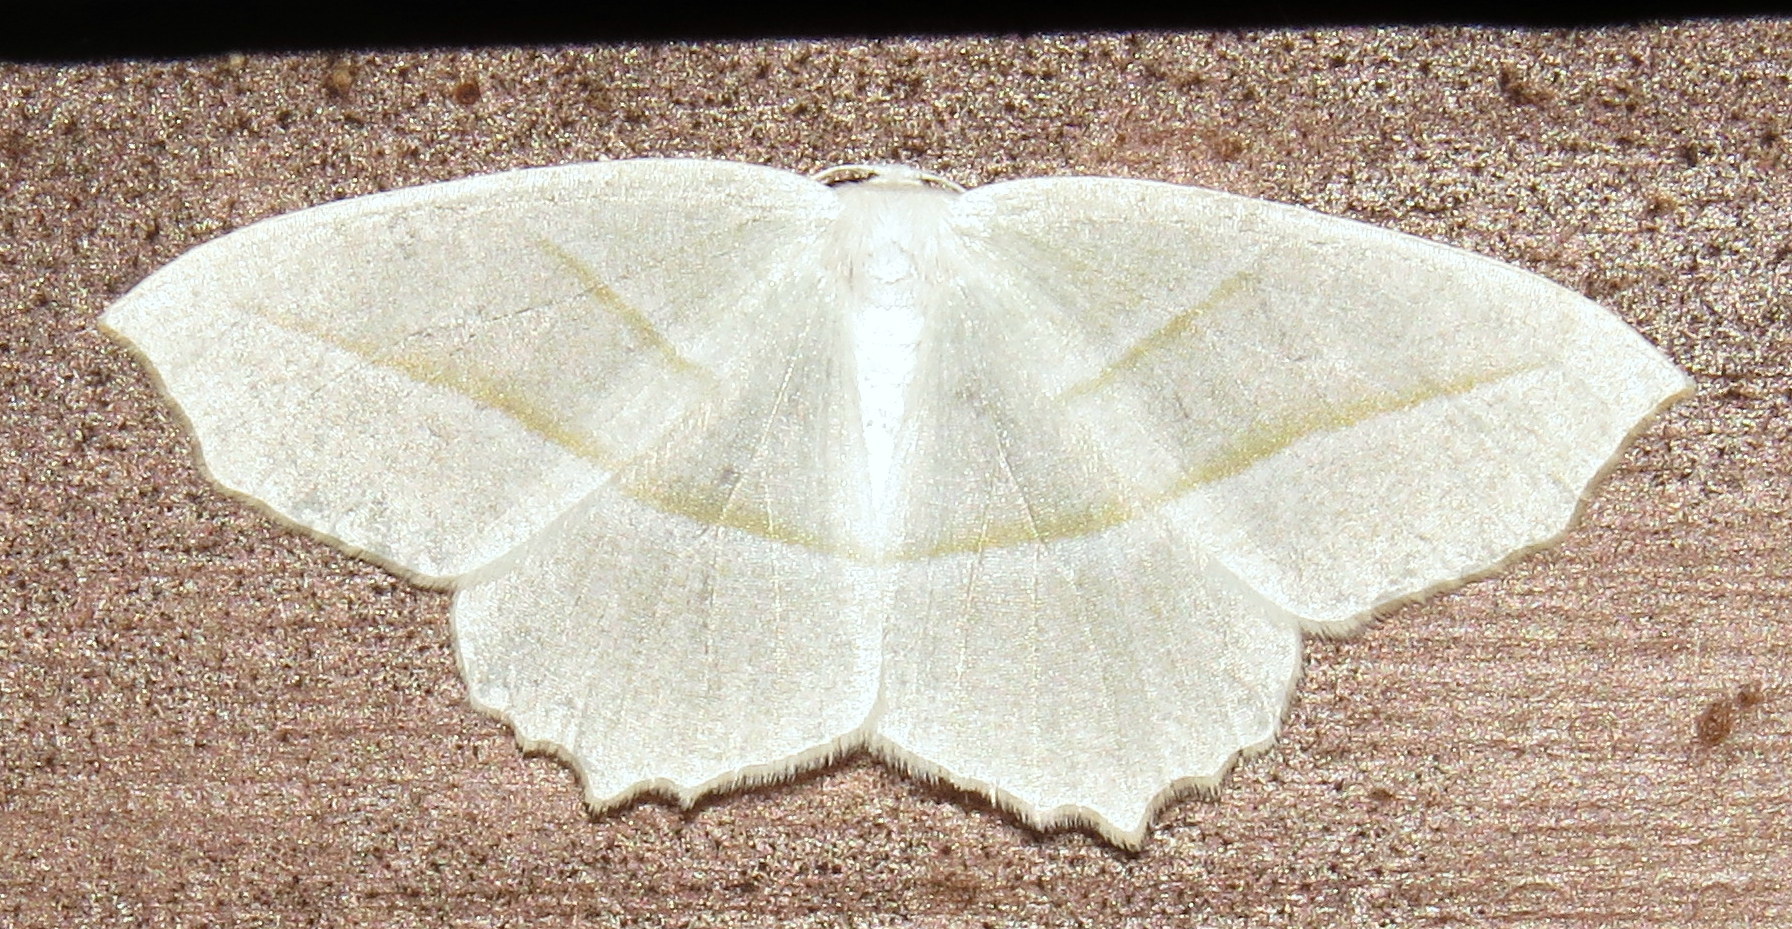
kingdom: Animalia
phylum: Arthropoda
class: Insecta
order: Lepidoptera
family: Geometridae
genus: Campaea
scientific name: Campaea perlata
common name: Fringed looper
